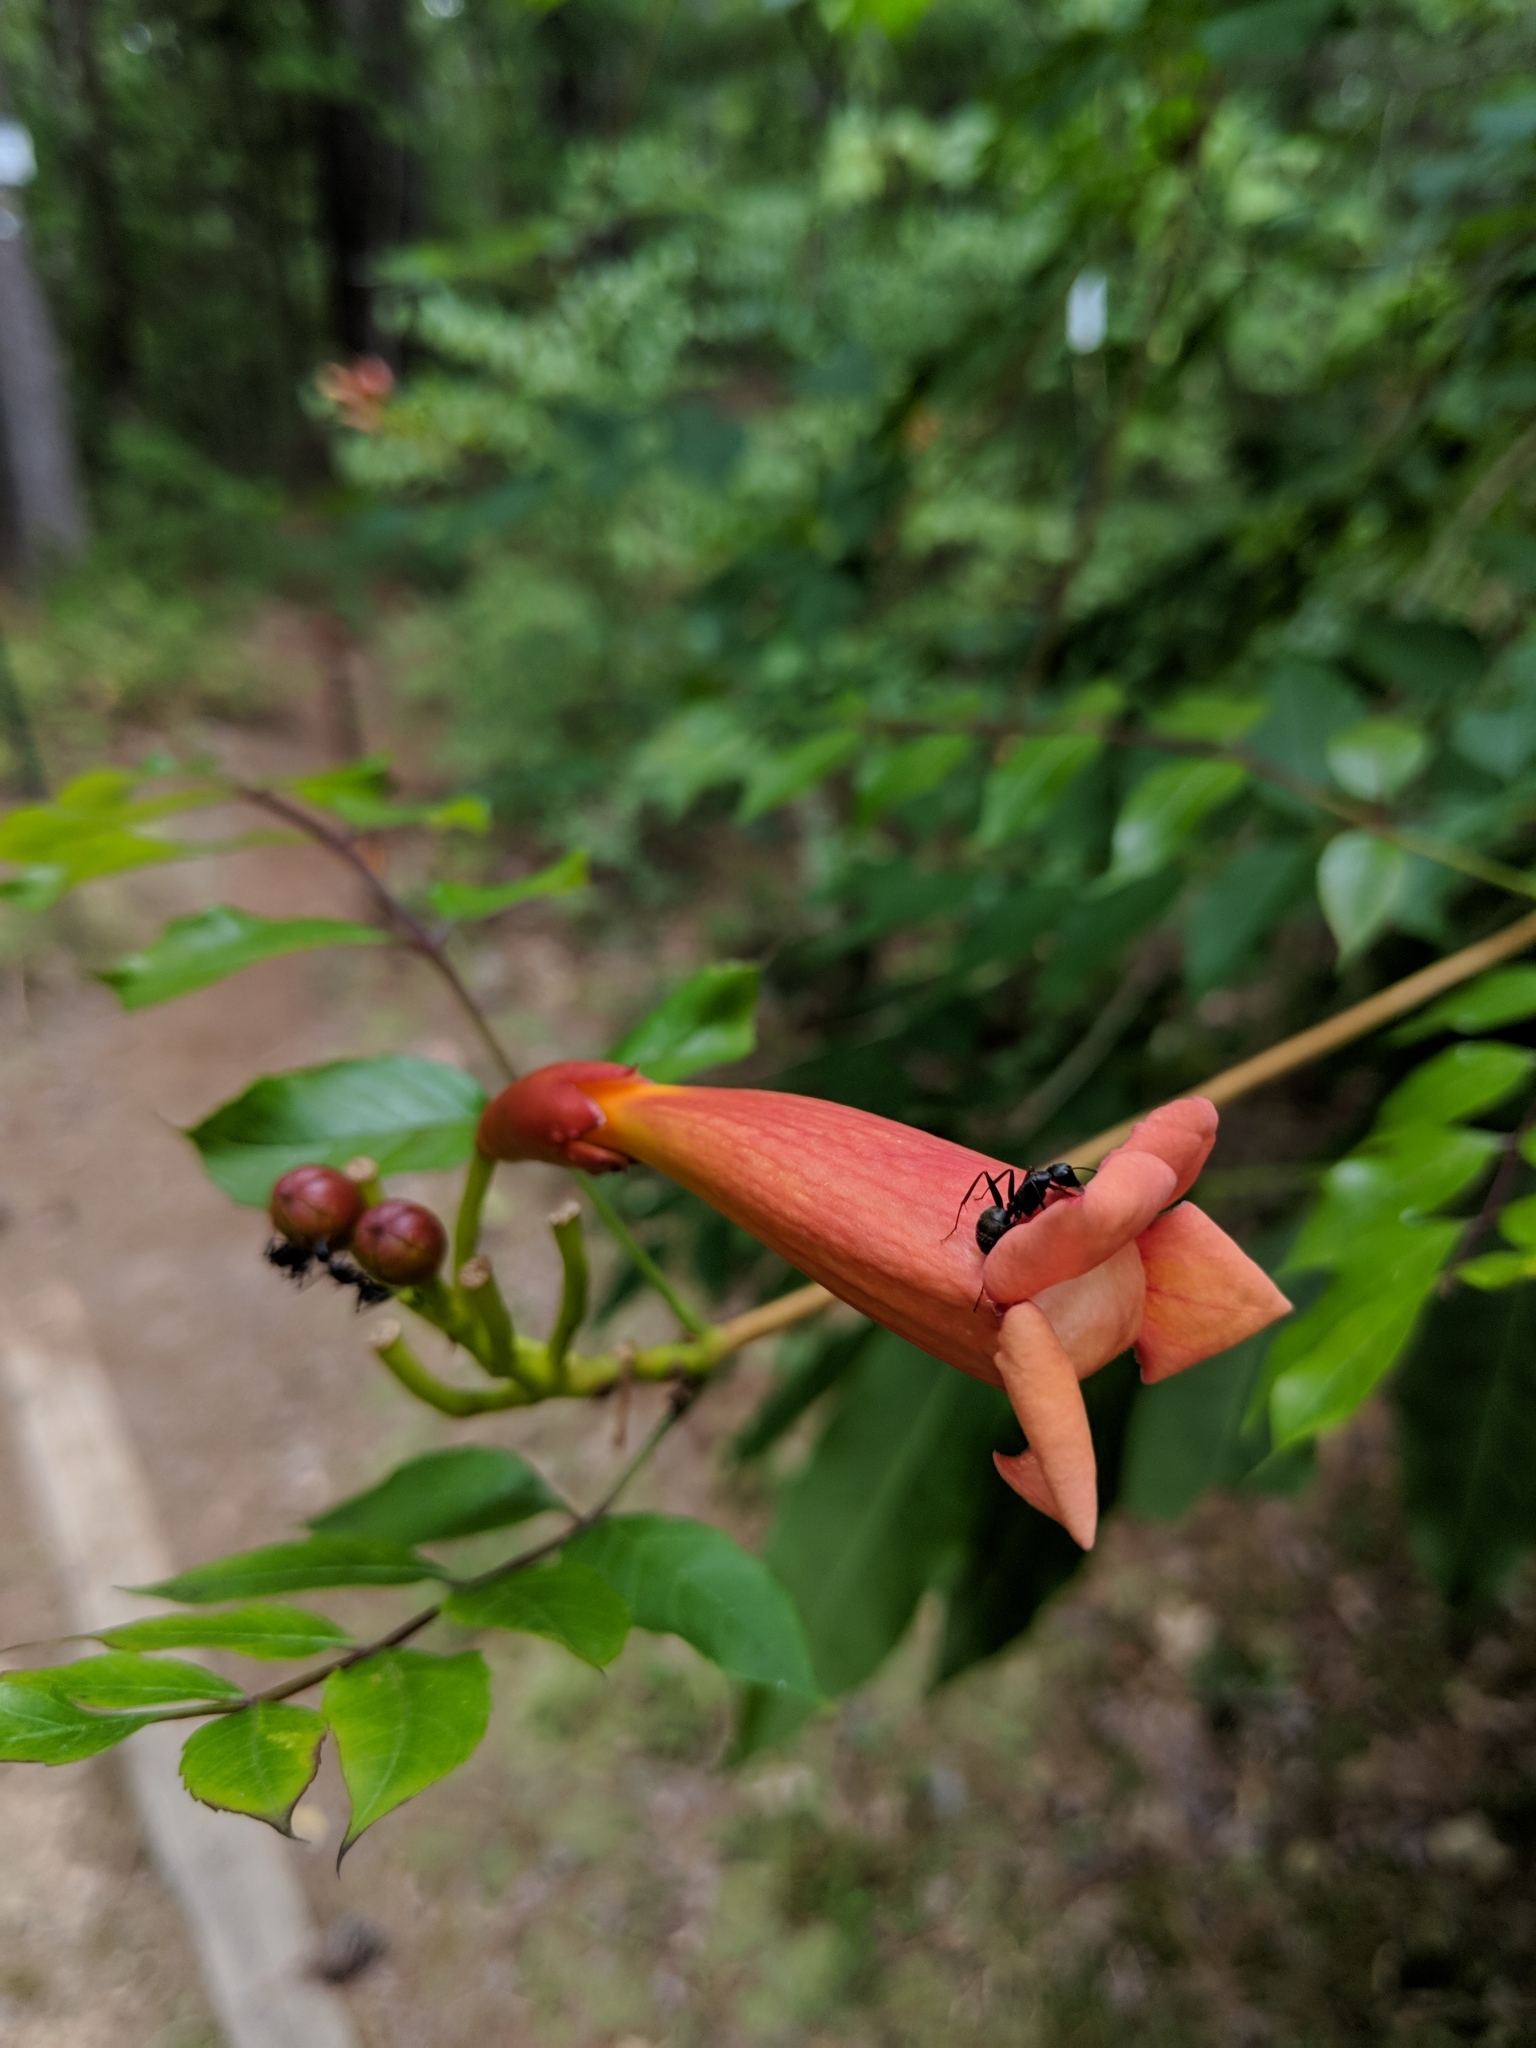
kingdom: Plantae
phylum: Tracheophyta
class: Magnoliopsida
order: Lamiales
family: Bignoniaceae
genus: Campsis
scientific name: Campsis radicans
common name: Trumpet-creeper
